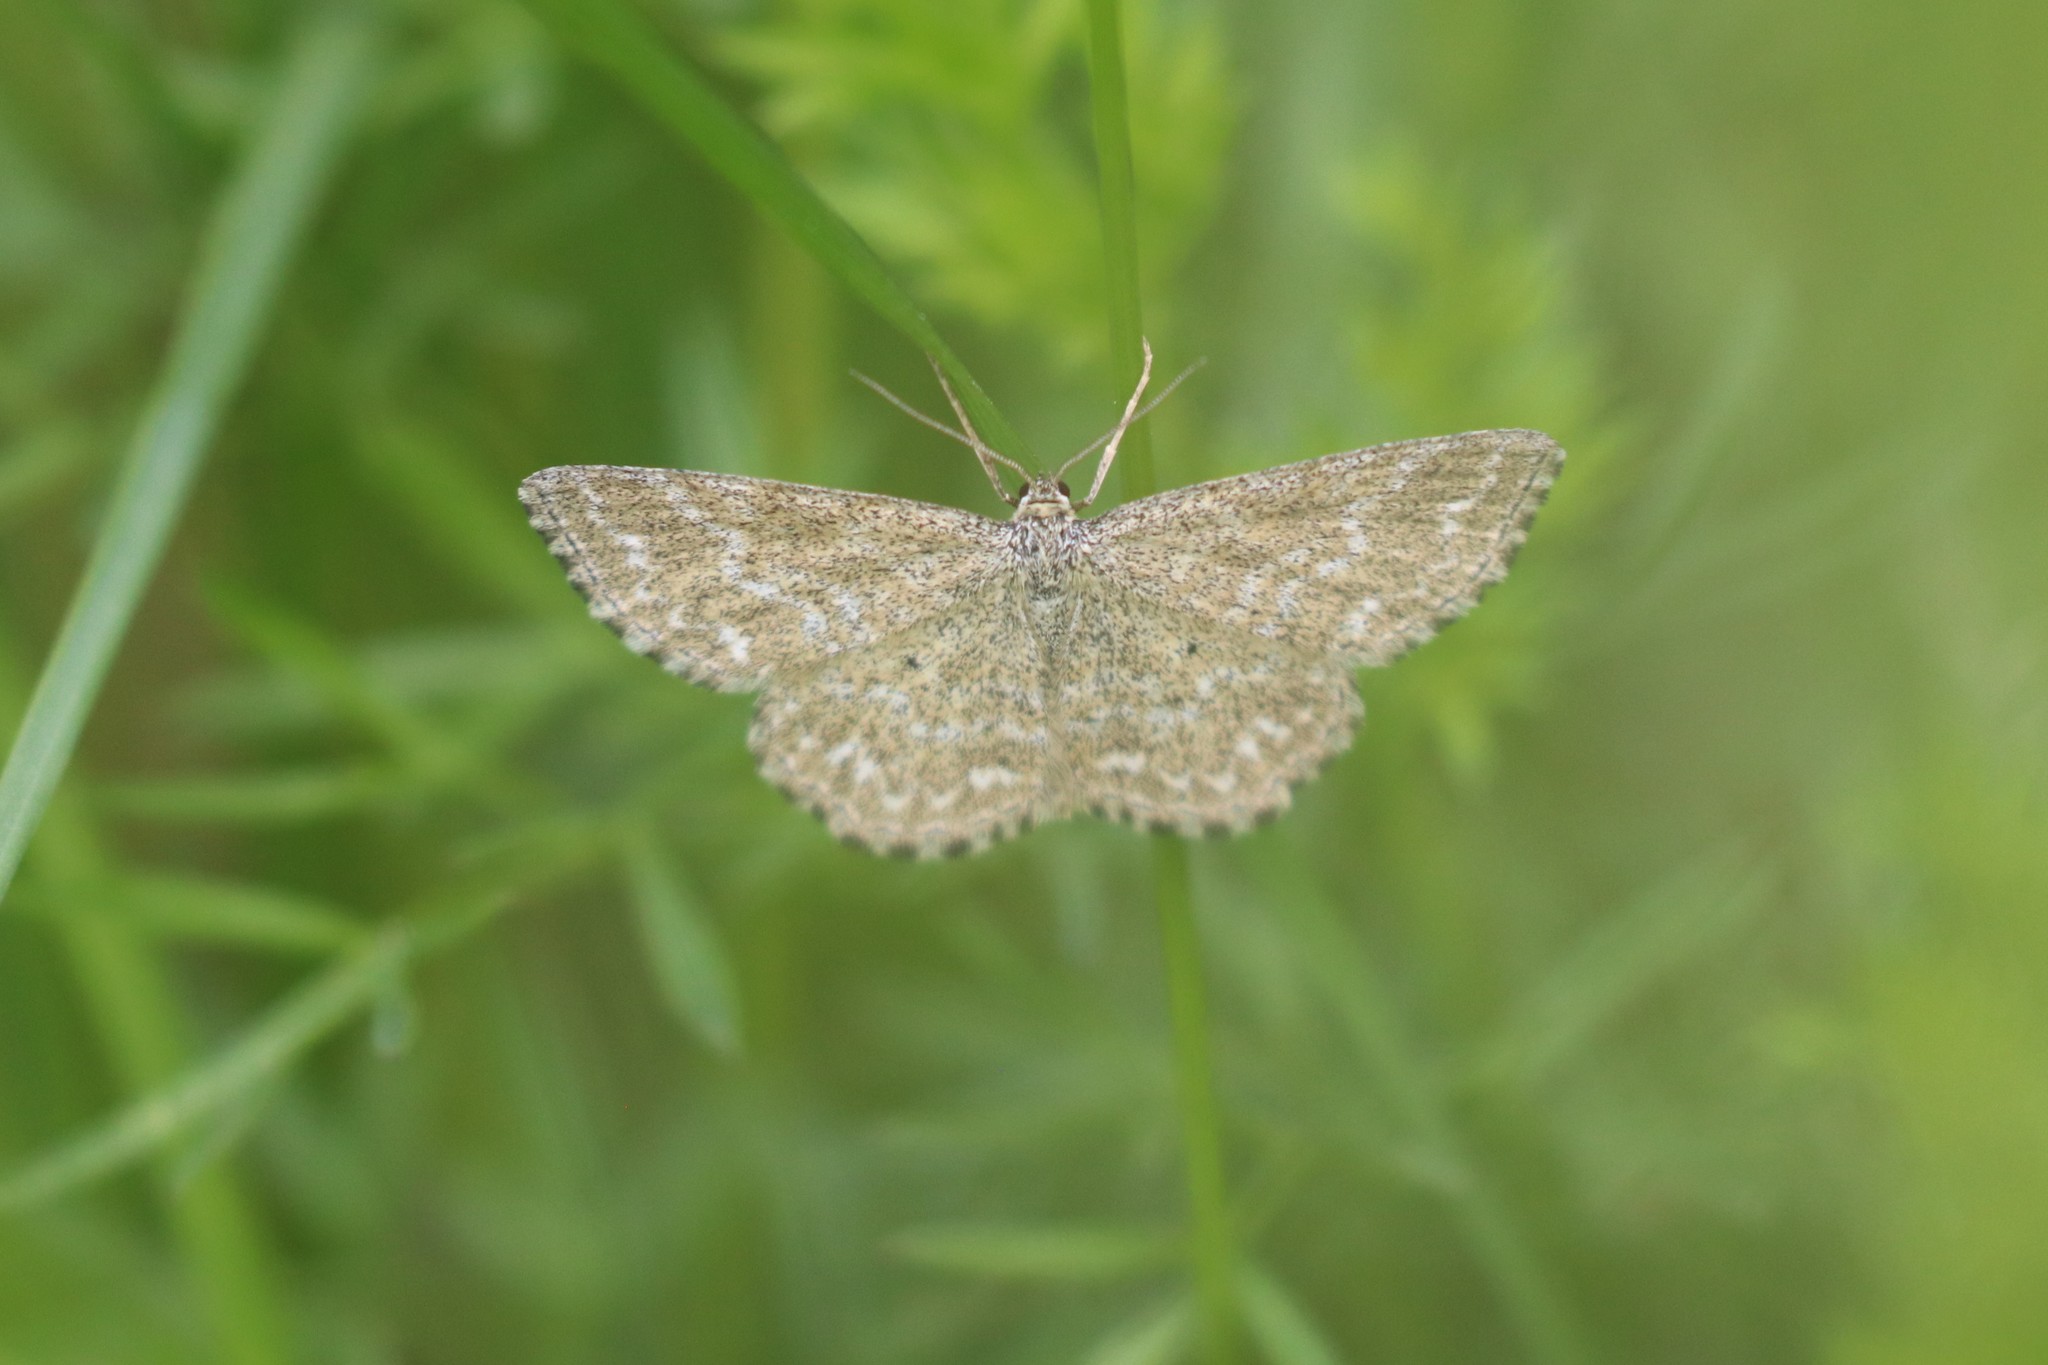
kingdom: Animalia
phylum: Arthropoda
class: Insecta
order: Lepidoptera
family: Geometridae
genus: Scopula
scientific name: Scopula immorata
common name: Lewes wave
